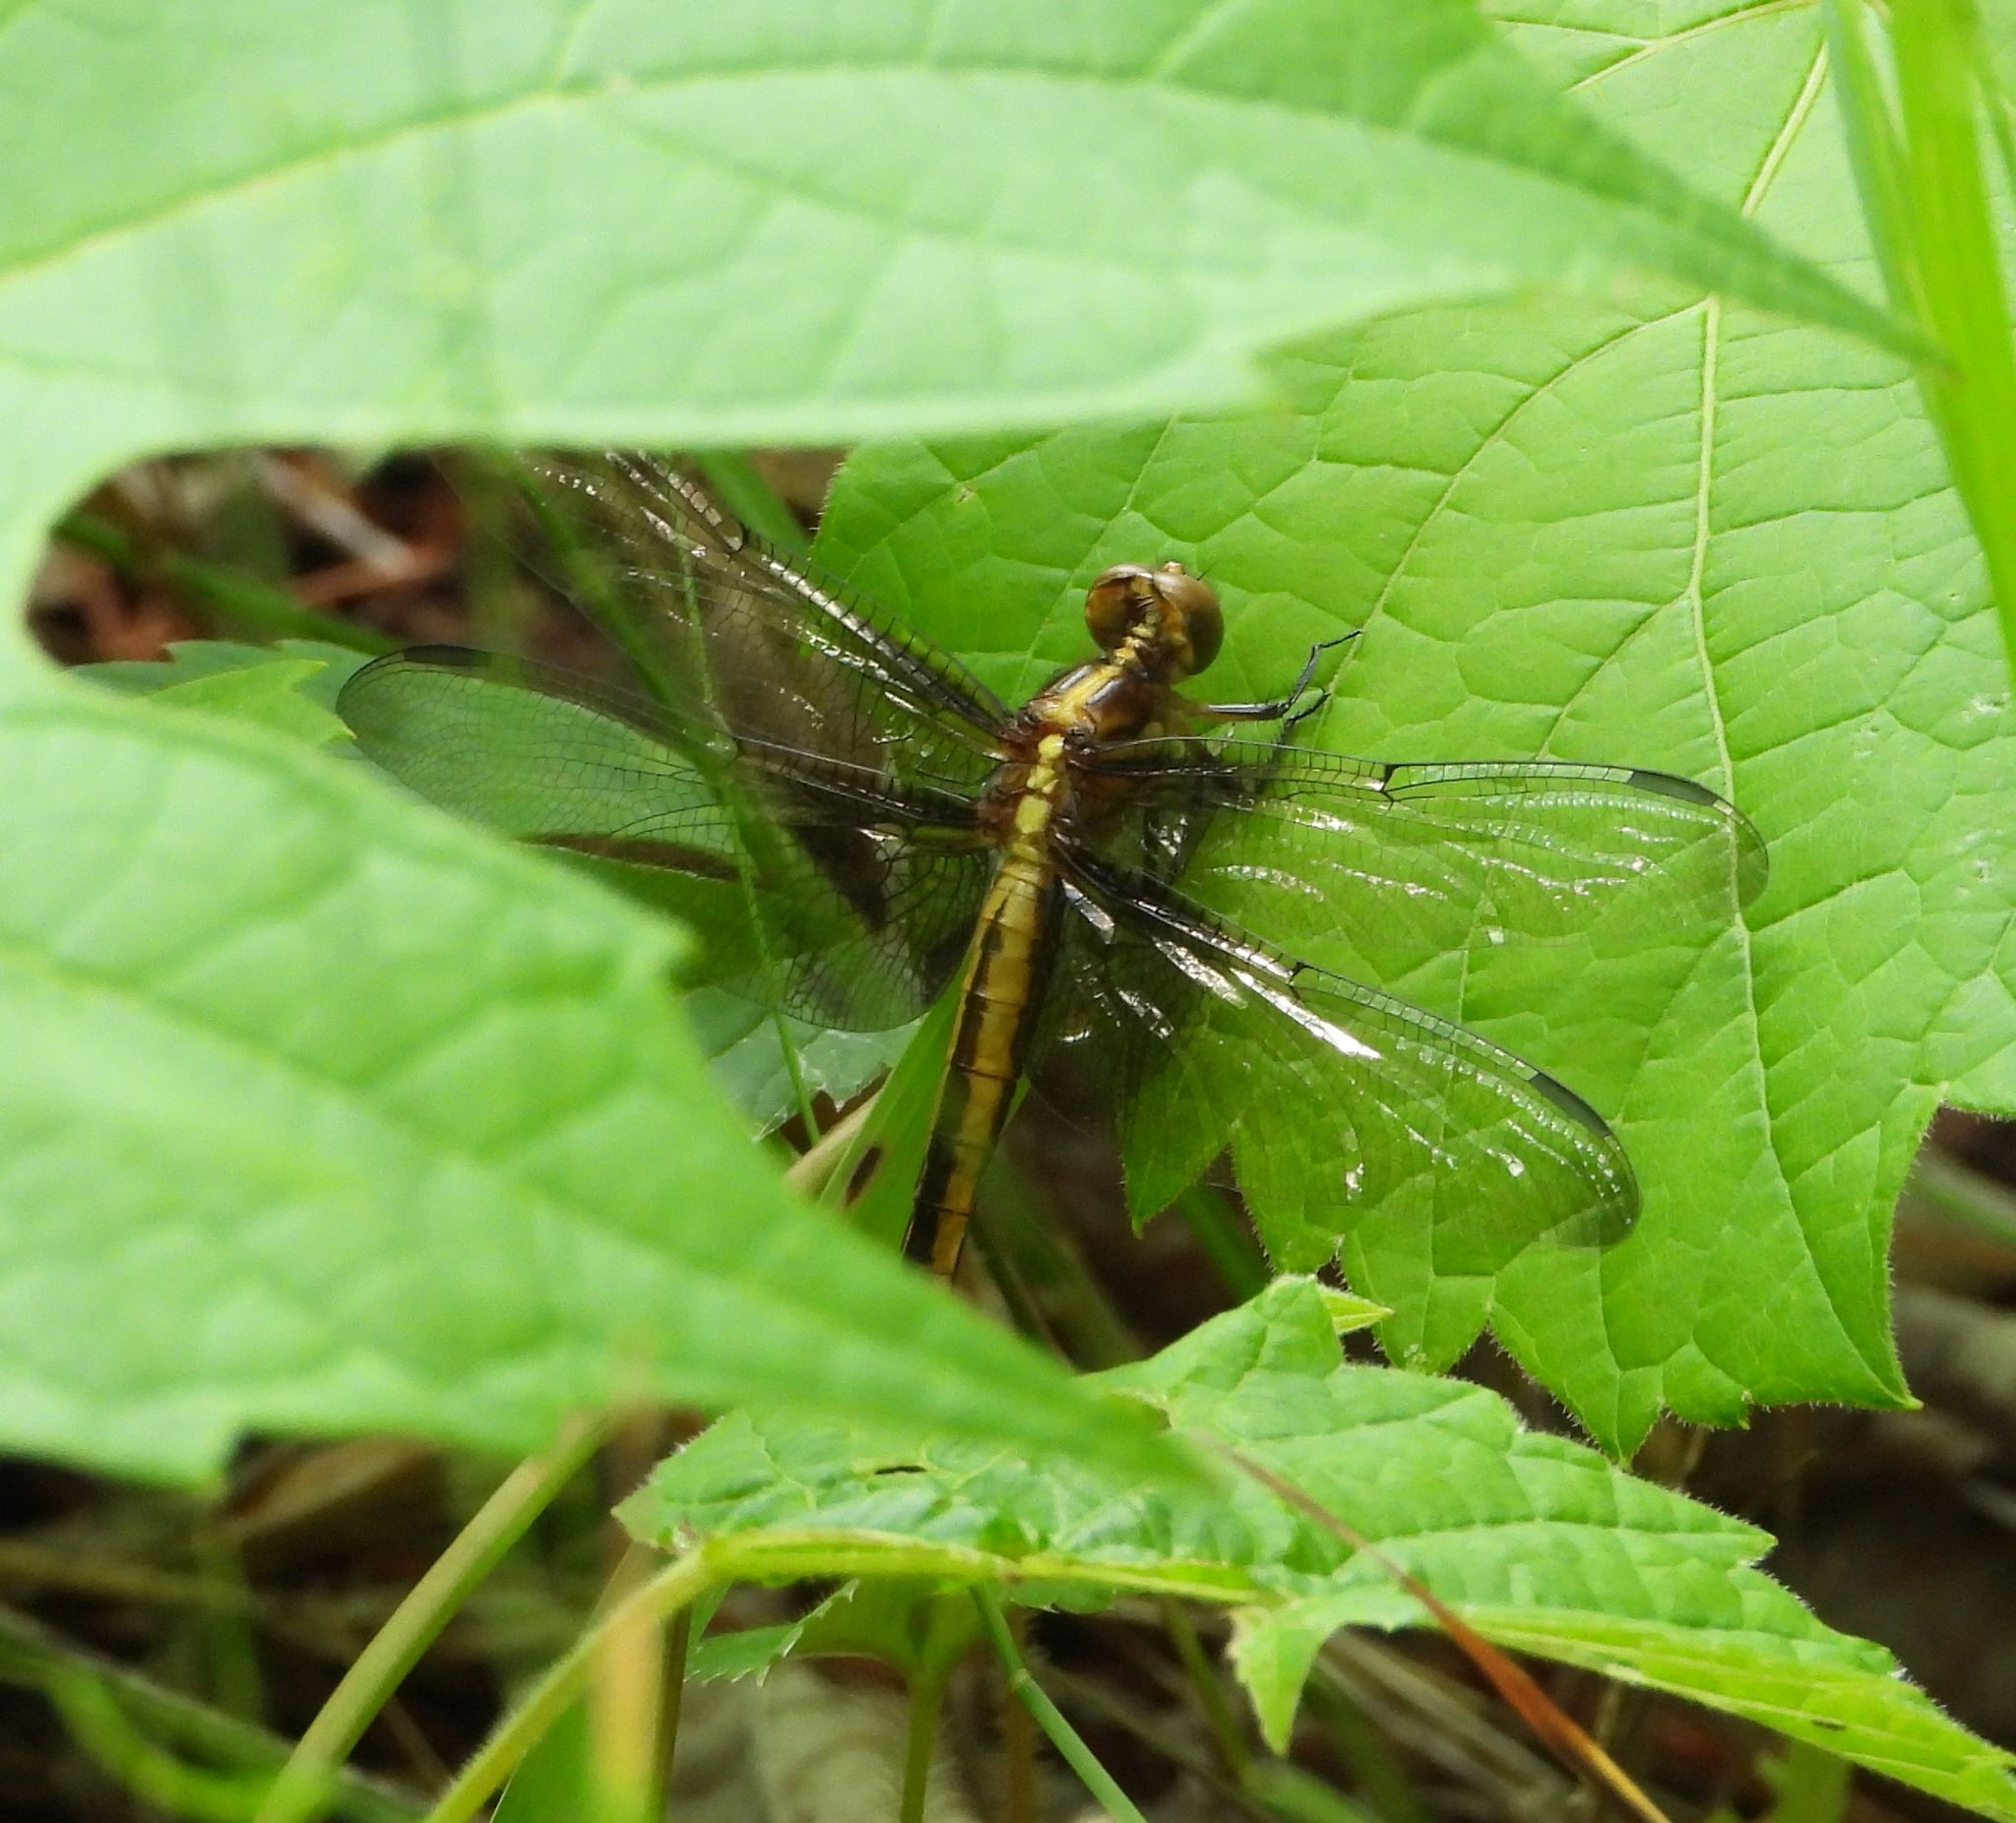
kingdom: Animalia
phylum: Arthropoda
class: Insecta
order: Odonata
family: Libellulidae
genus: Libellula
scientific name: Libellula luctuosa
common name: Widow skimmer
